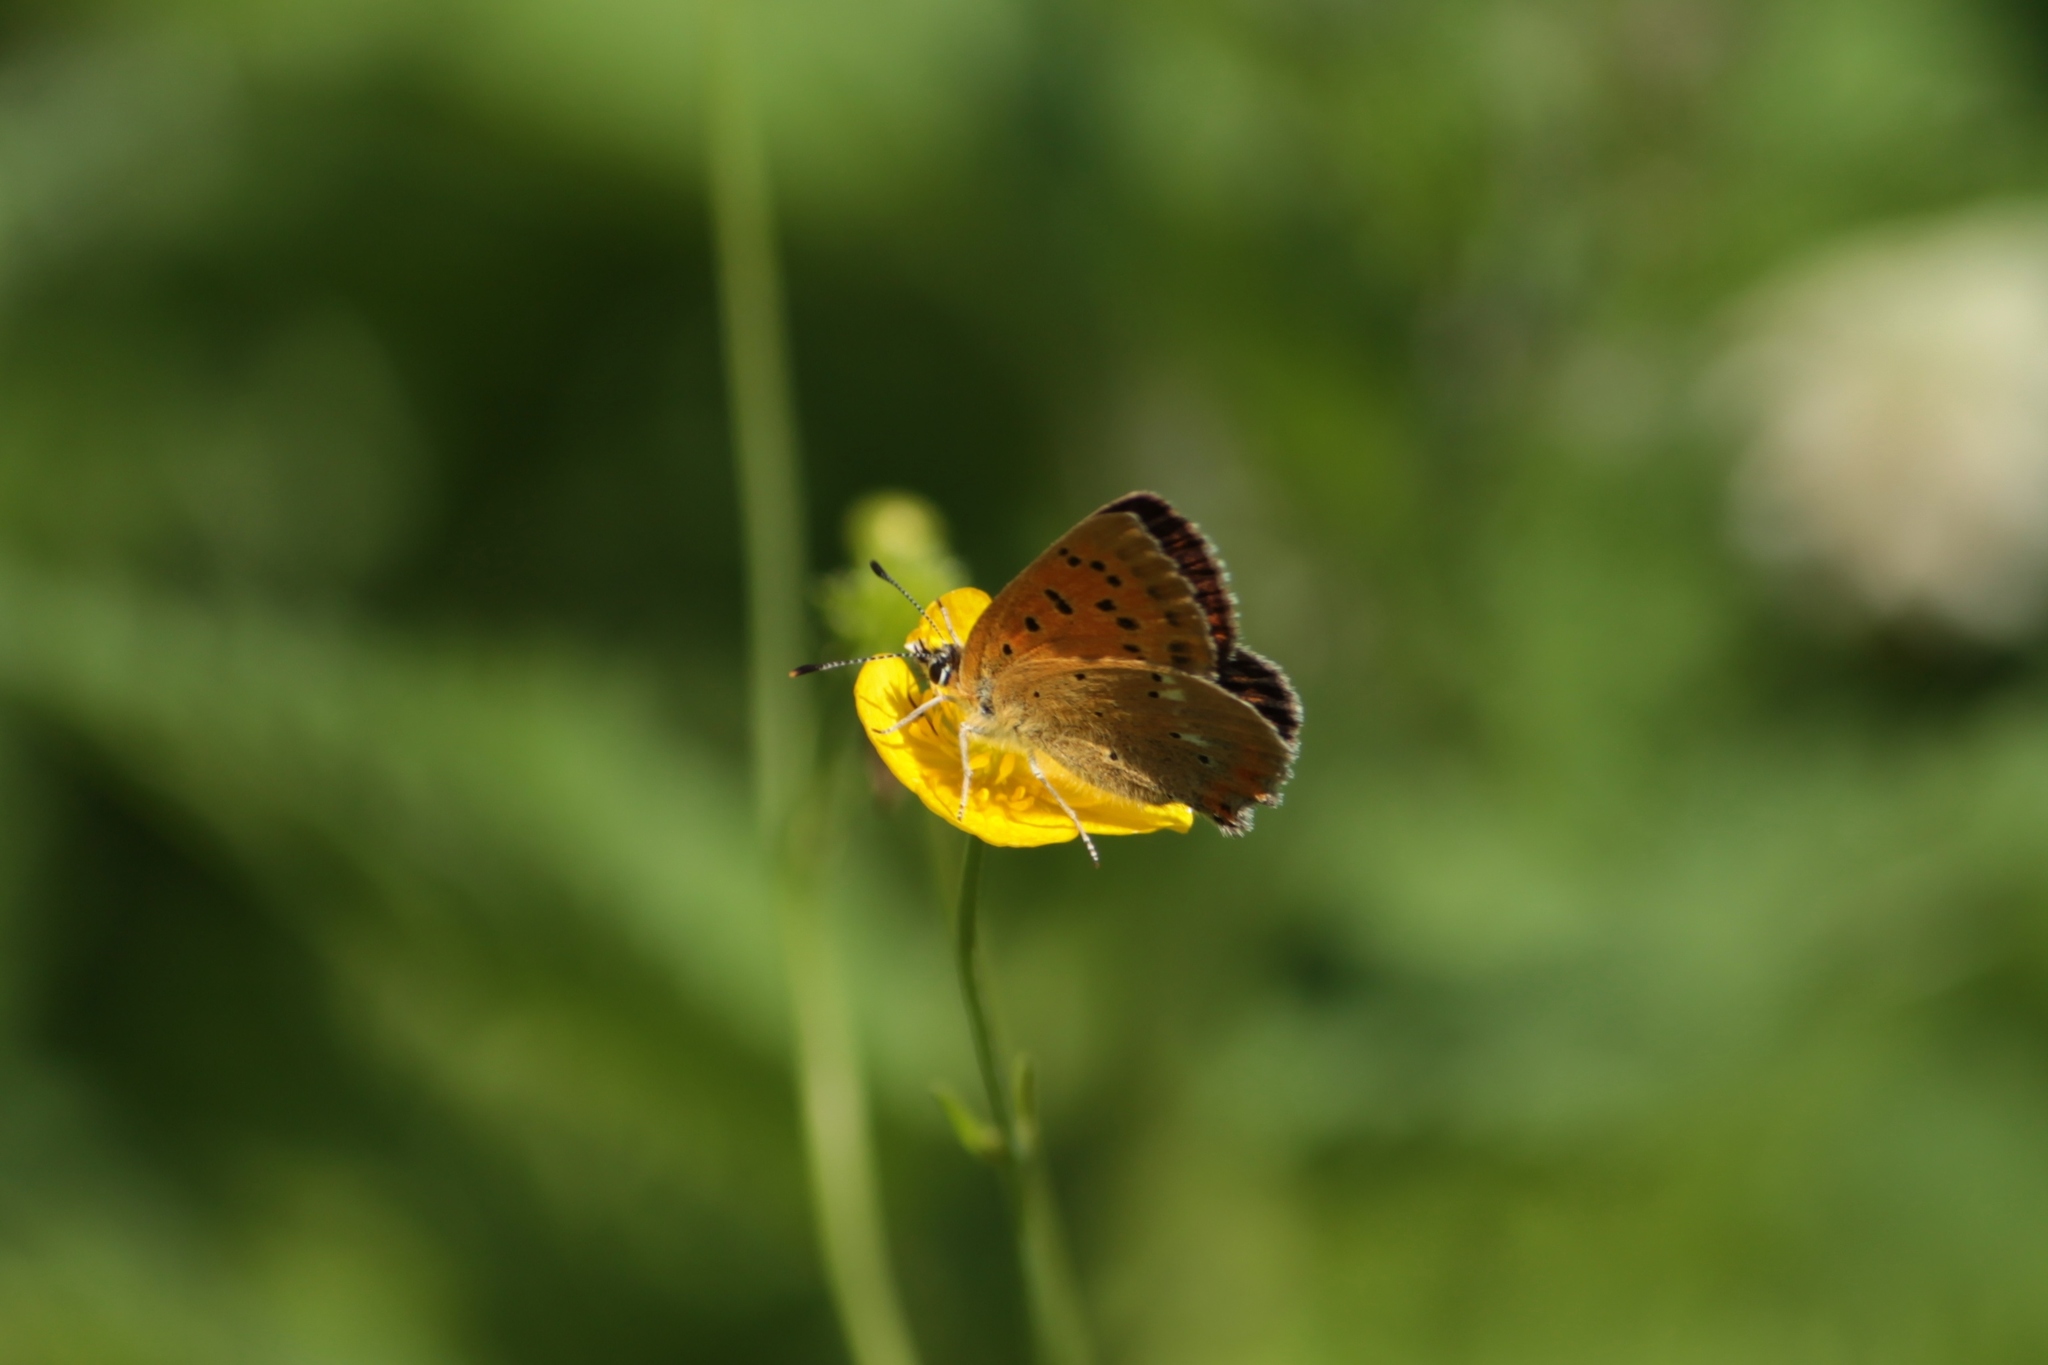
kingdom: Animalia
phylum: Arthropoda
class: Insecta
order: Lepidoptera
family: Lycaenidae
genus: Lycaena
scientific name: Lycaena virgaureae
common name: Scarce copper
